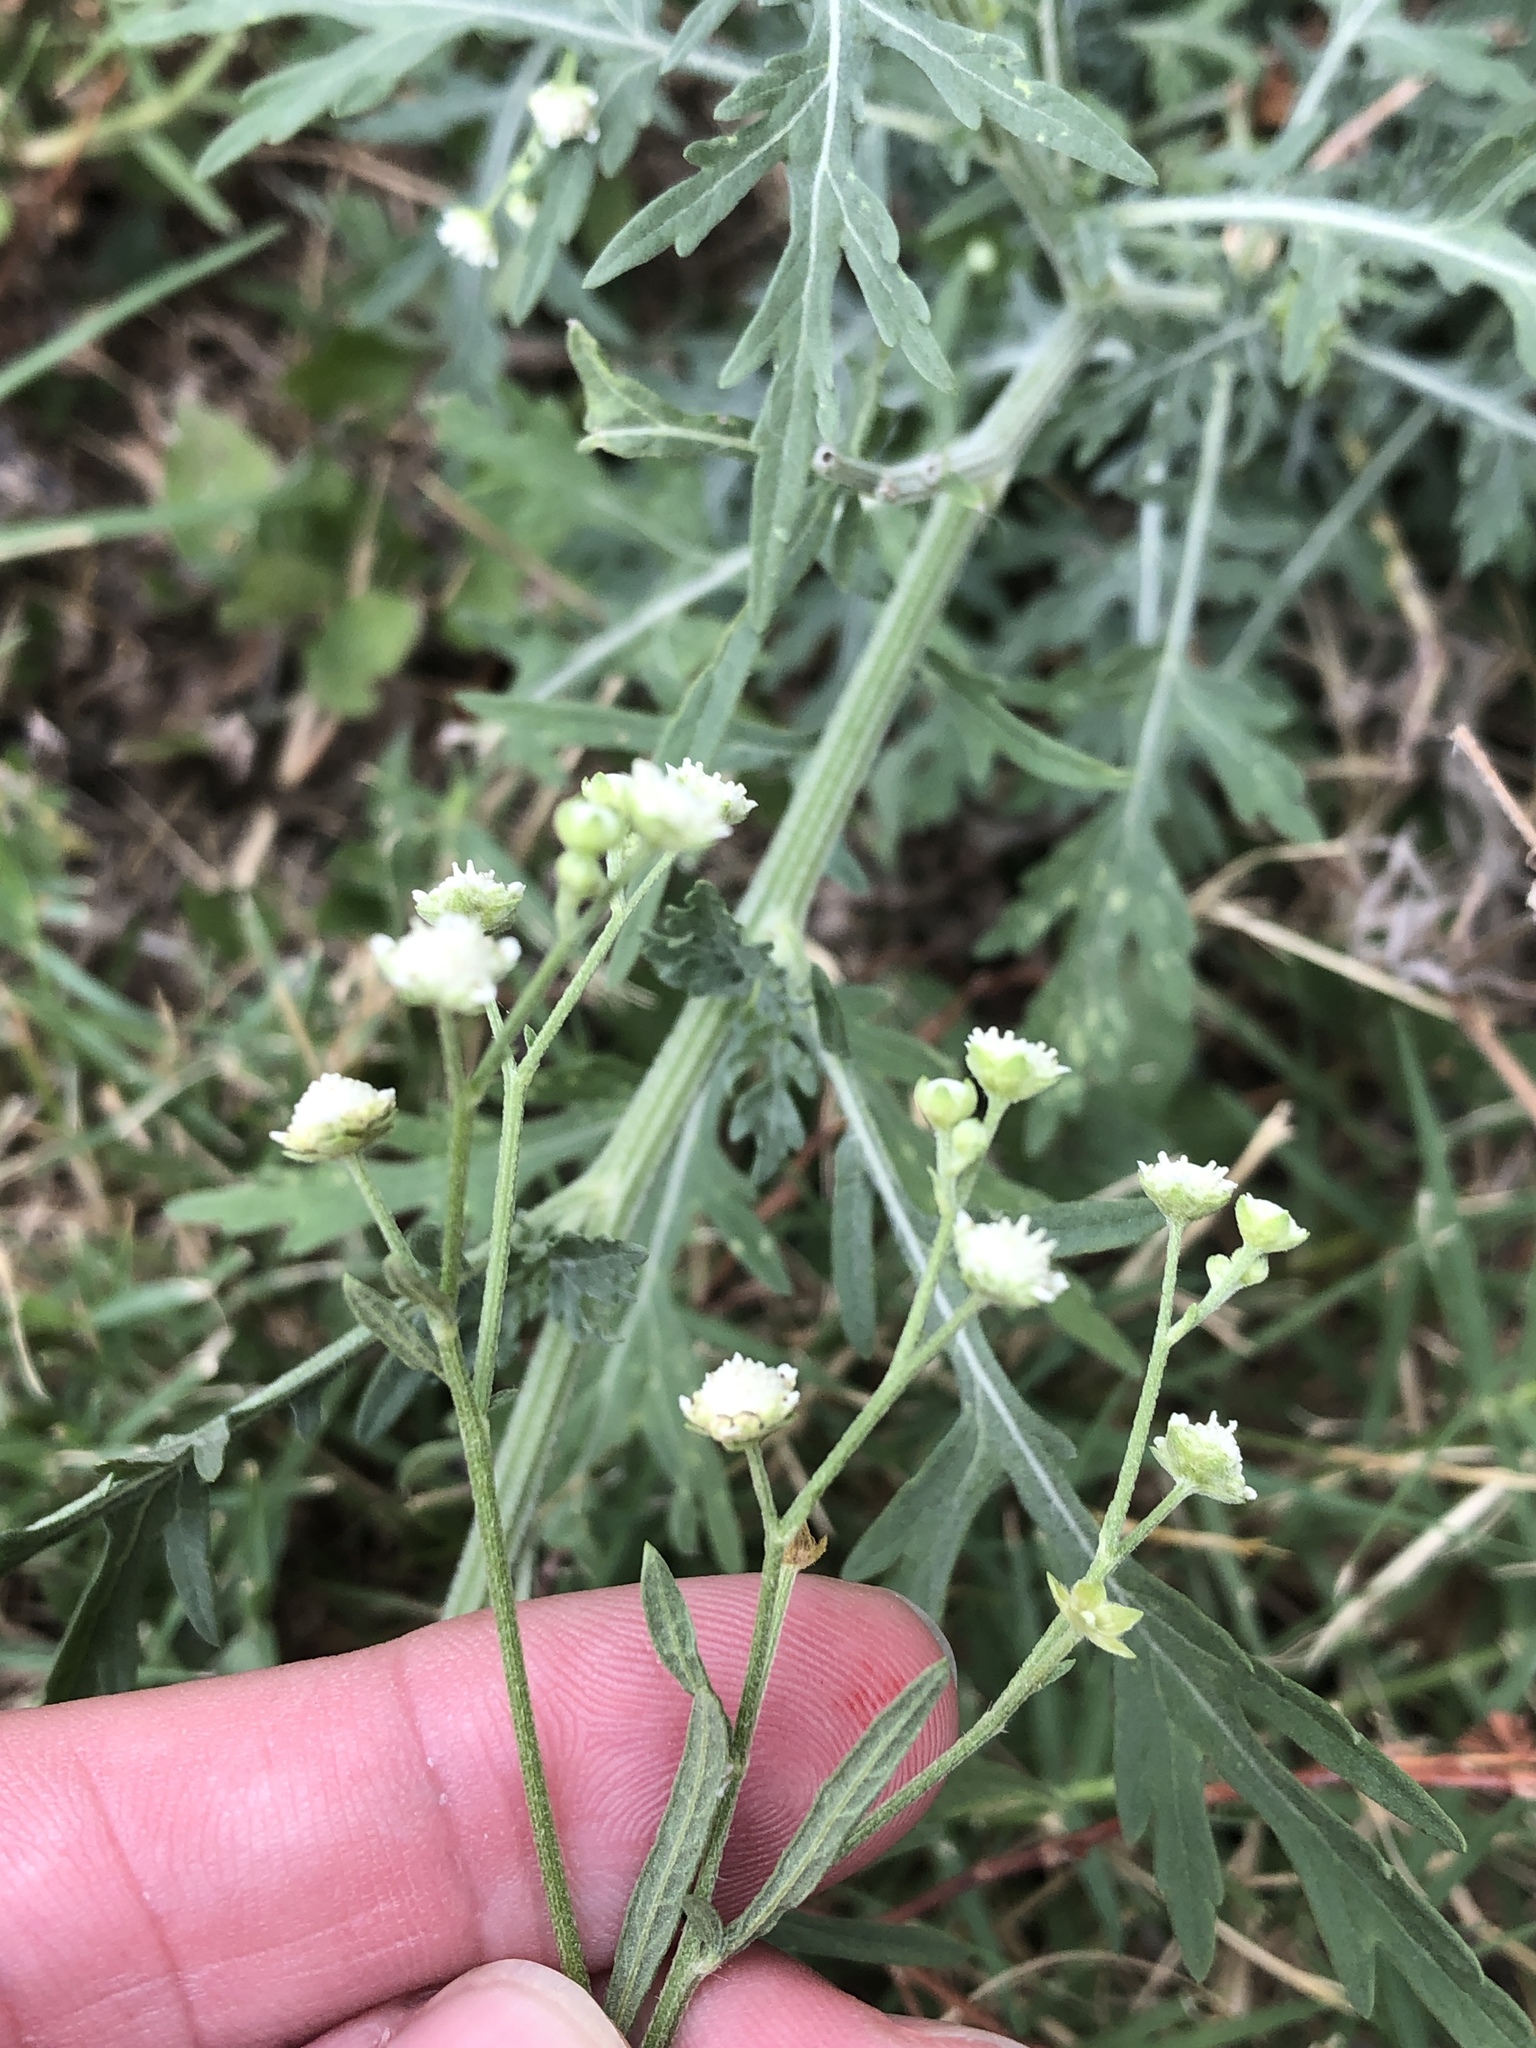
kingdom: Plantae
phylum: Tracheophyta
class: Magnoliopsida
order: Asterales
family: Asteraceae
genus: Parthenium
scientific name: Parthenium hysterophorus
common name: Santa maria feverfew
